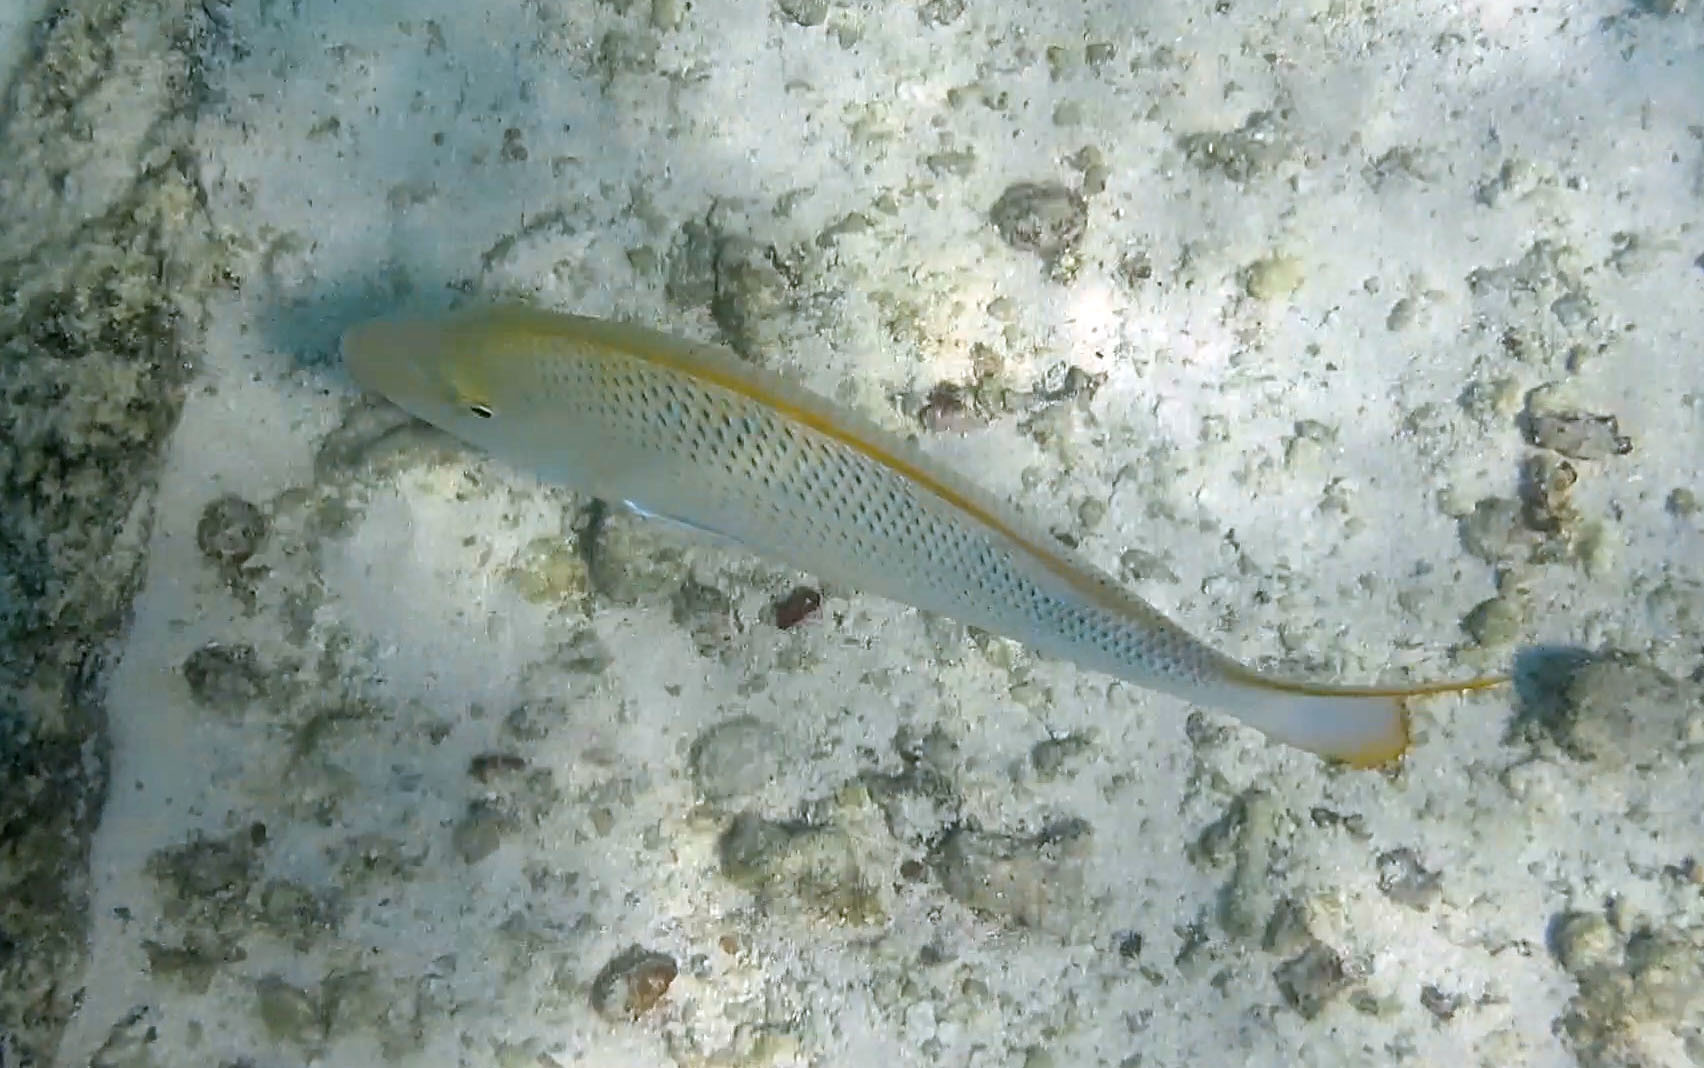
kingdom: Animalia
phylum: Chordata
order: Perciformes
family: Lethrinidae
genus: Lethrinus
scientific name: Lethrinus nebulosus
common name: Spangled emperor
